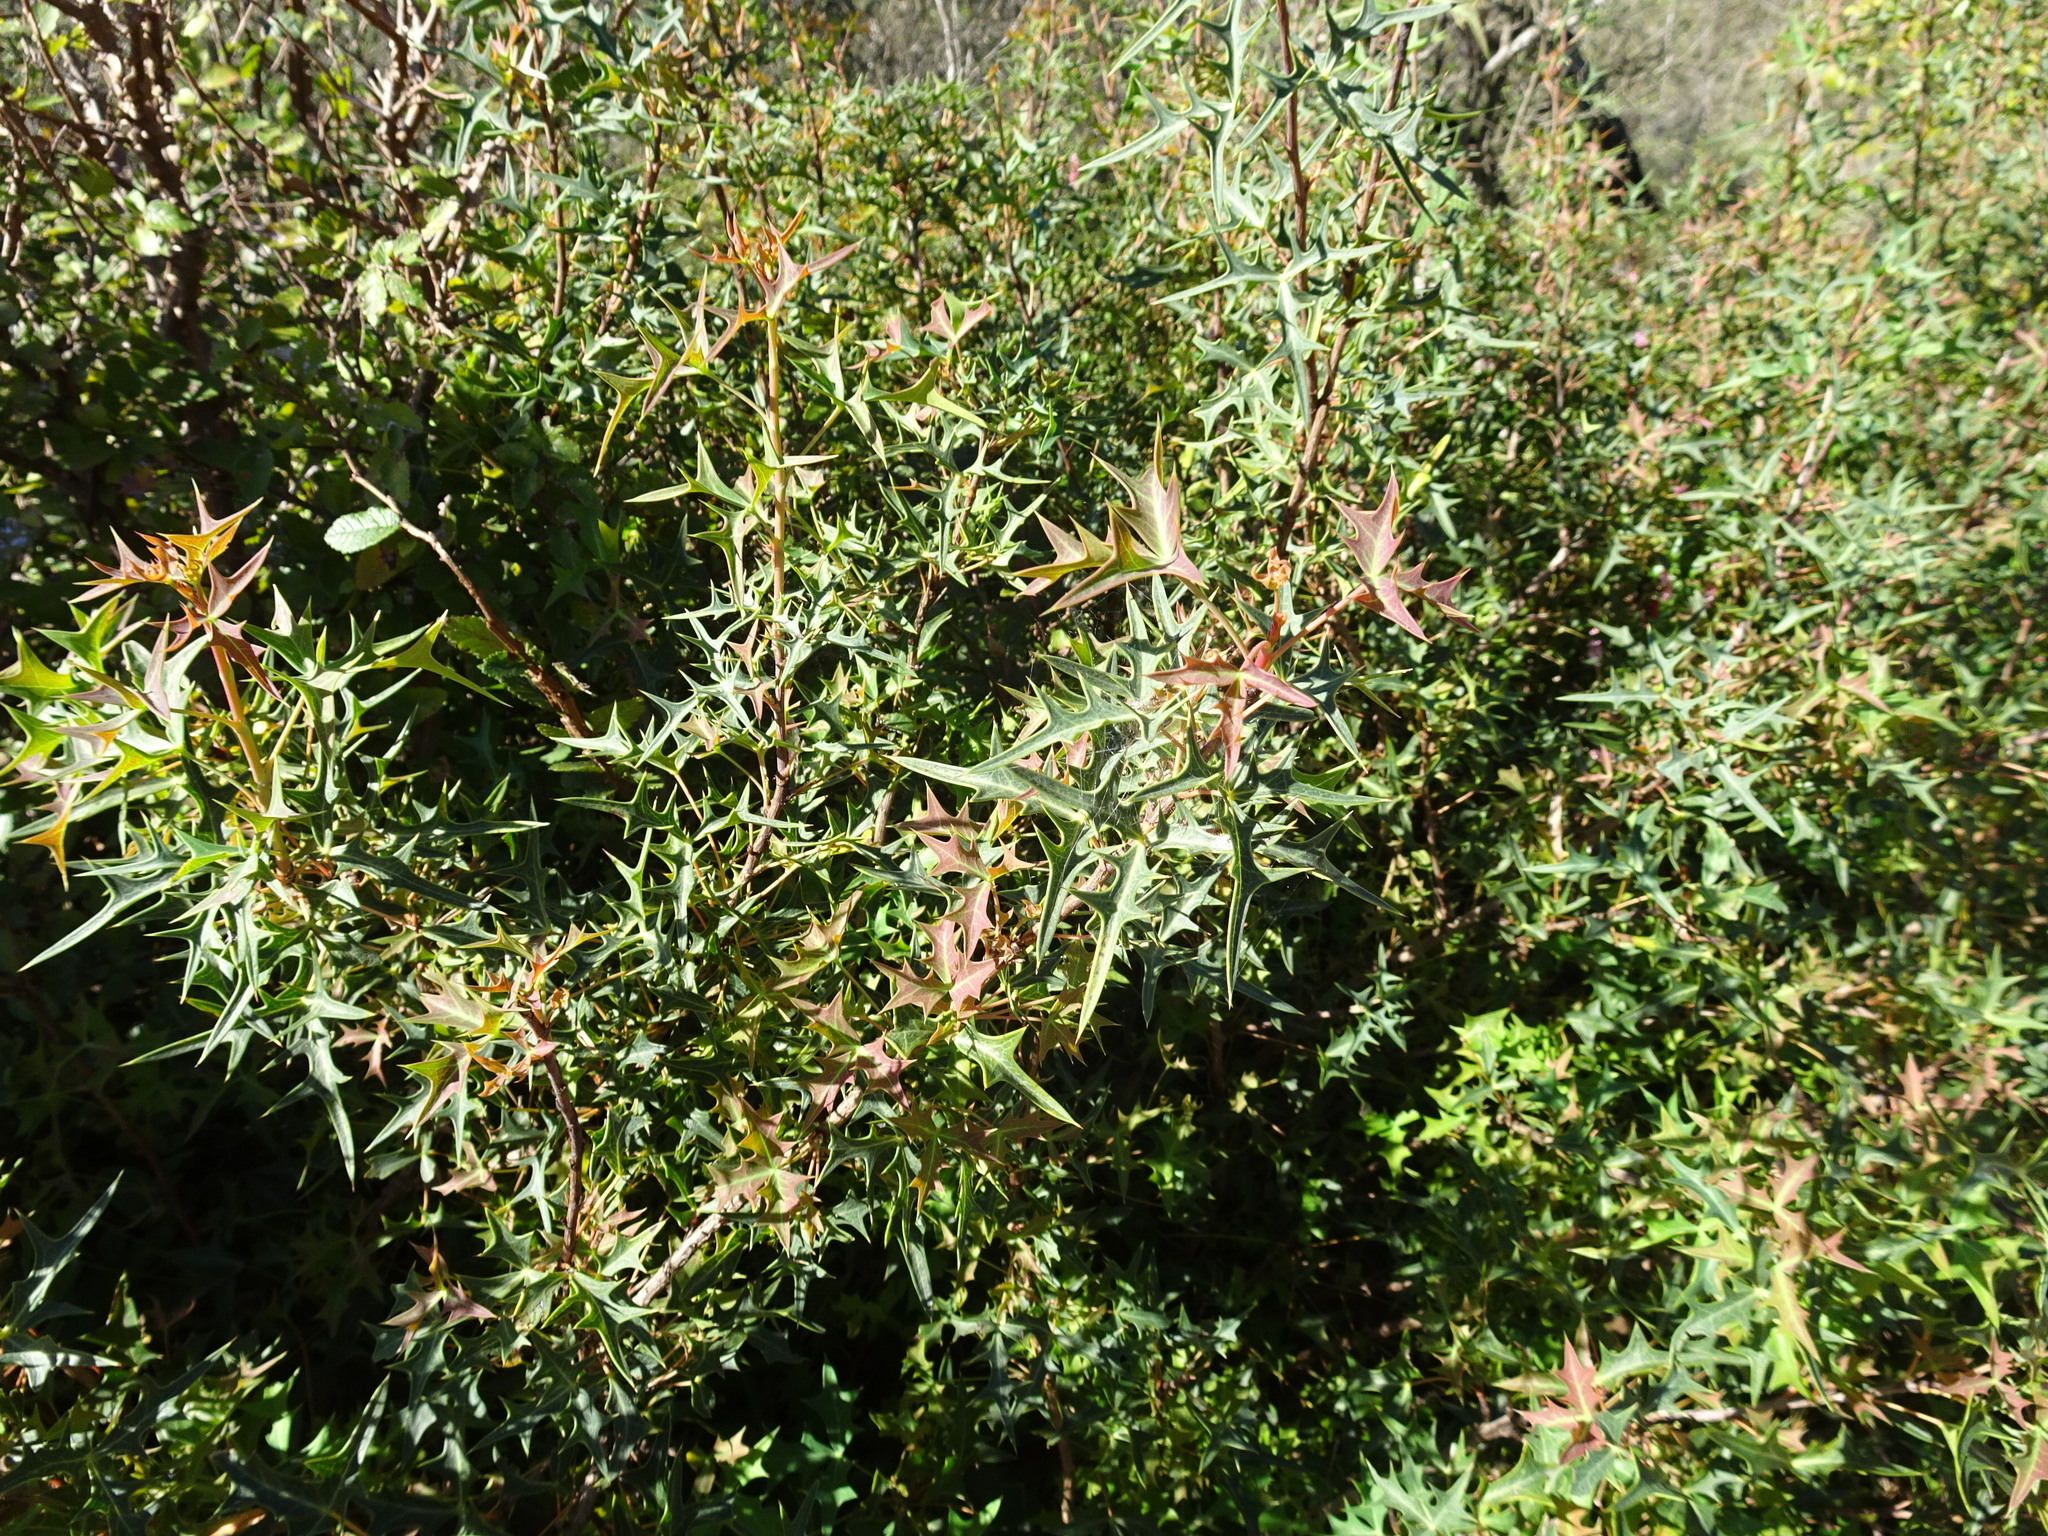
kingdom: Plantae
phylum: Tracheophyta
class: Magnoliopsida
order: Ranunculales
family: Berberidaceae
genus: Alloberberis
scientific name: Alloberberis trifoliolata
